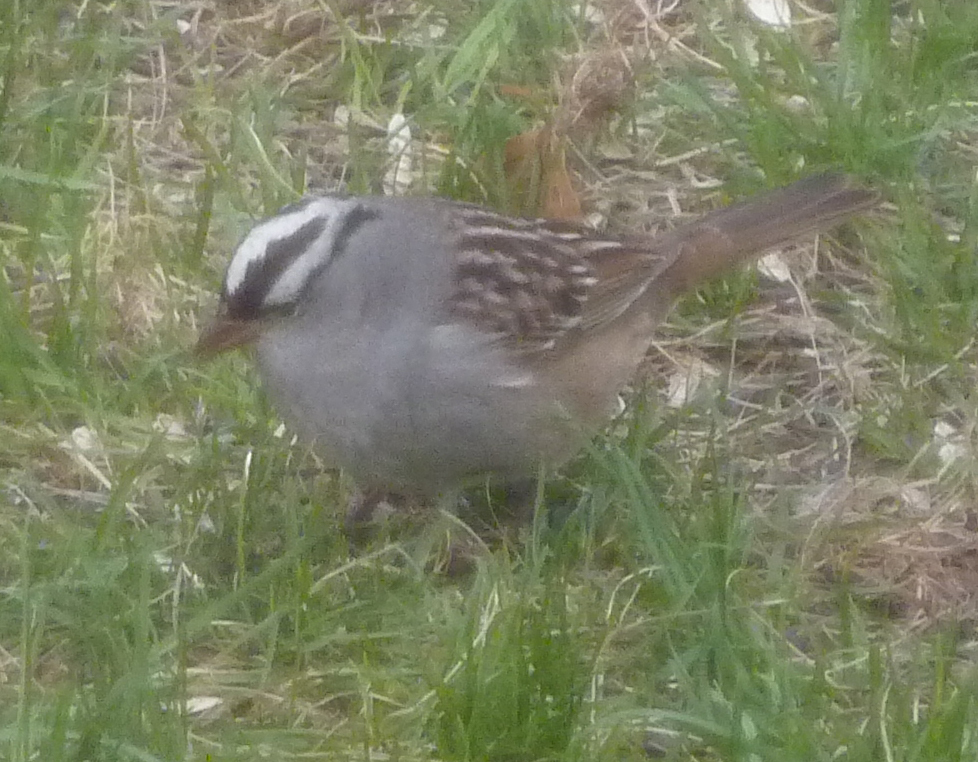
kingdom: Animalia
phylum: Chordata
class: Aves
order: Passeriformes
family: Passerellidae
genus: Zonotrichia
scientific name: Zonotrichia leucophrys
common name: White-crowned sparrow
